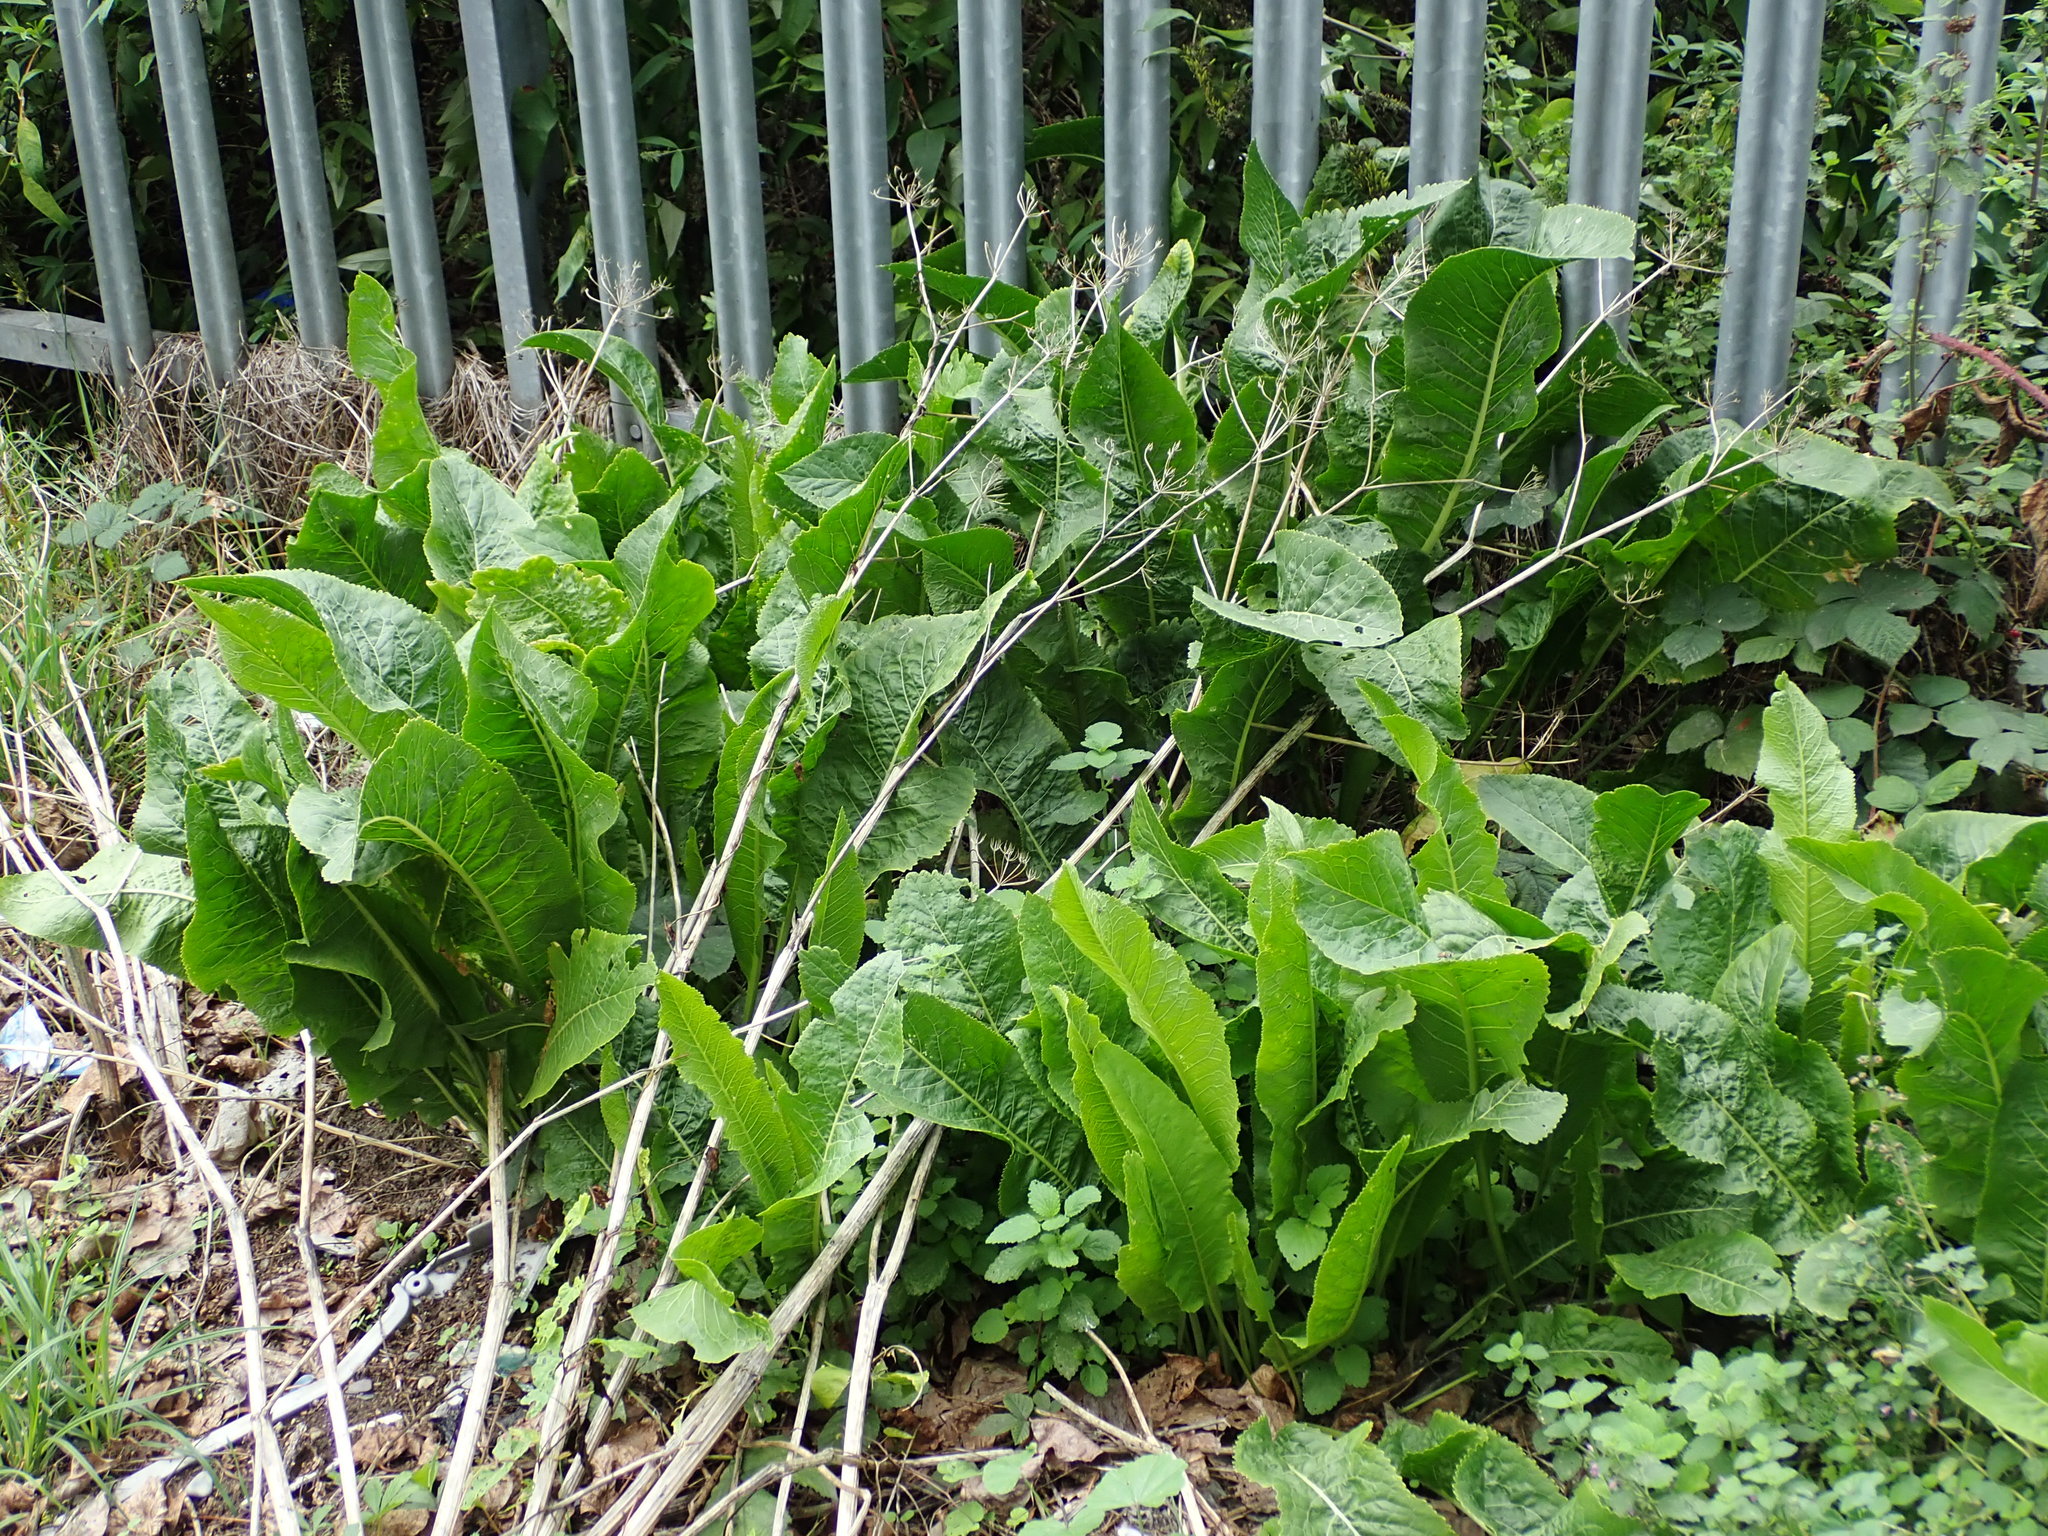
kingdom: Plantae
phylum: Tracheophyta
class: Magnoliopsida
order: Brassicales
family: Brassicaceae
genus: Armoracia
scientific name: Armoracia rusticana
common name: Horseradish
